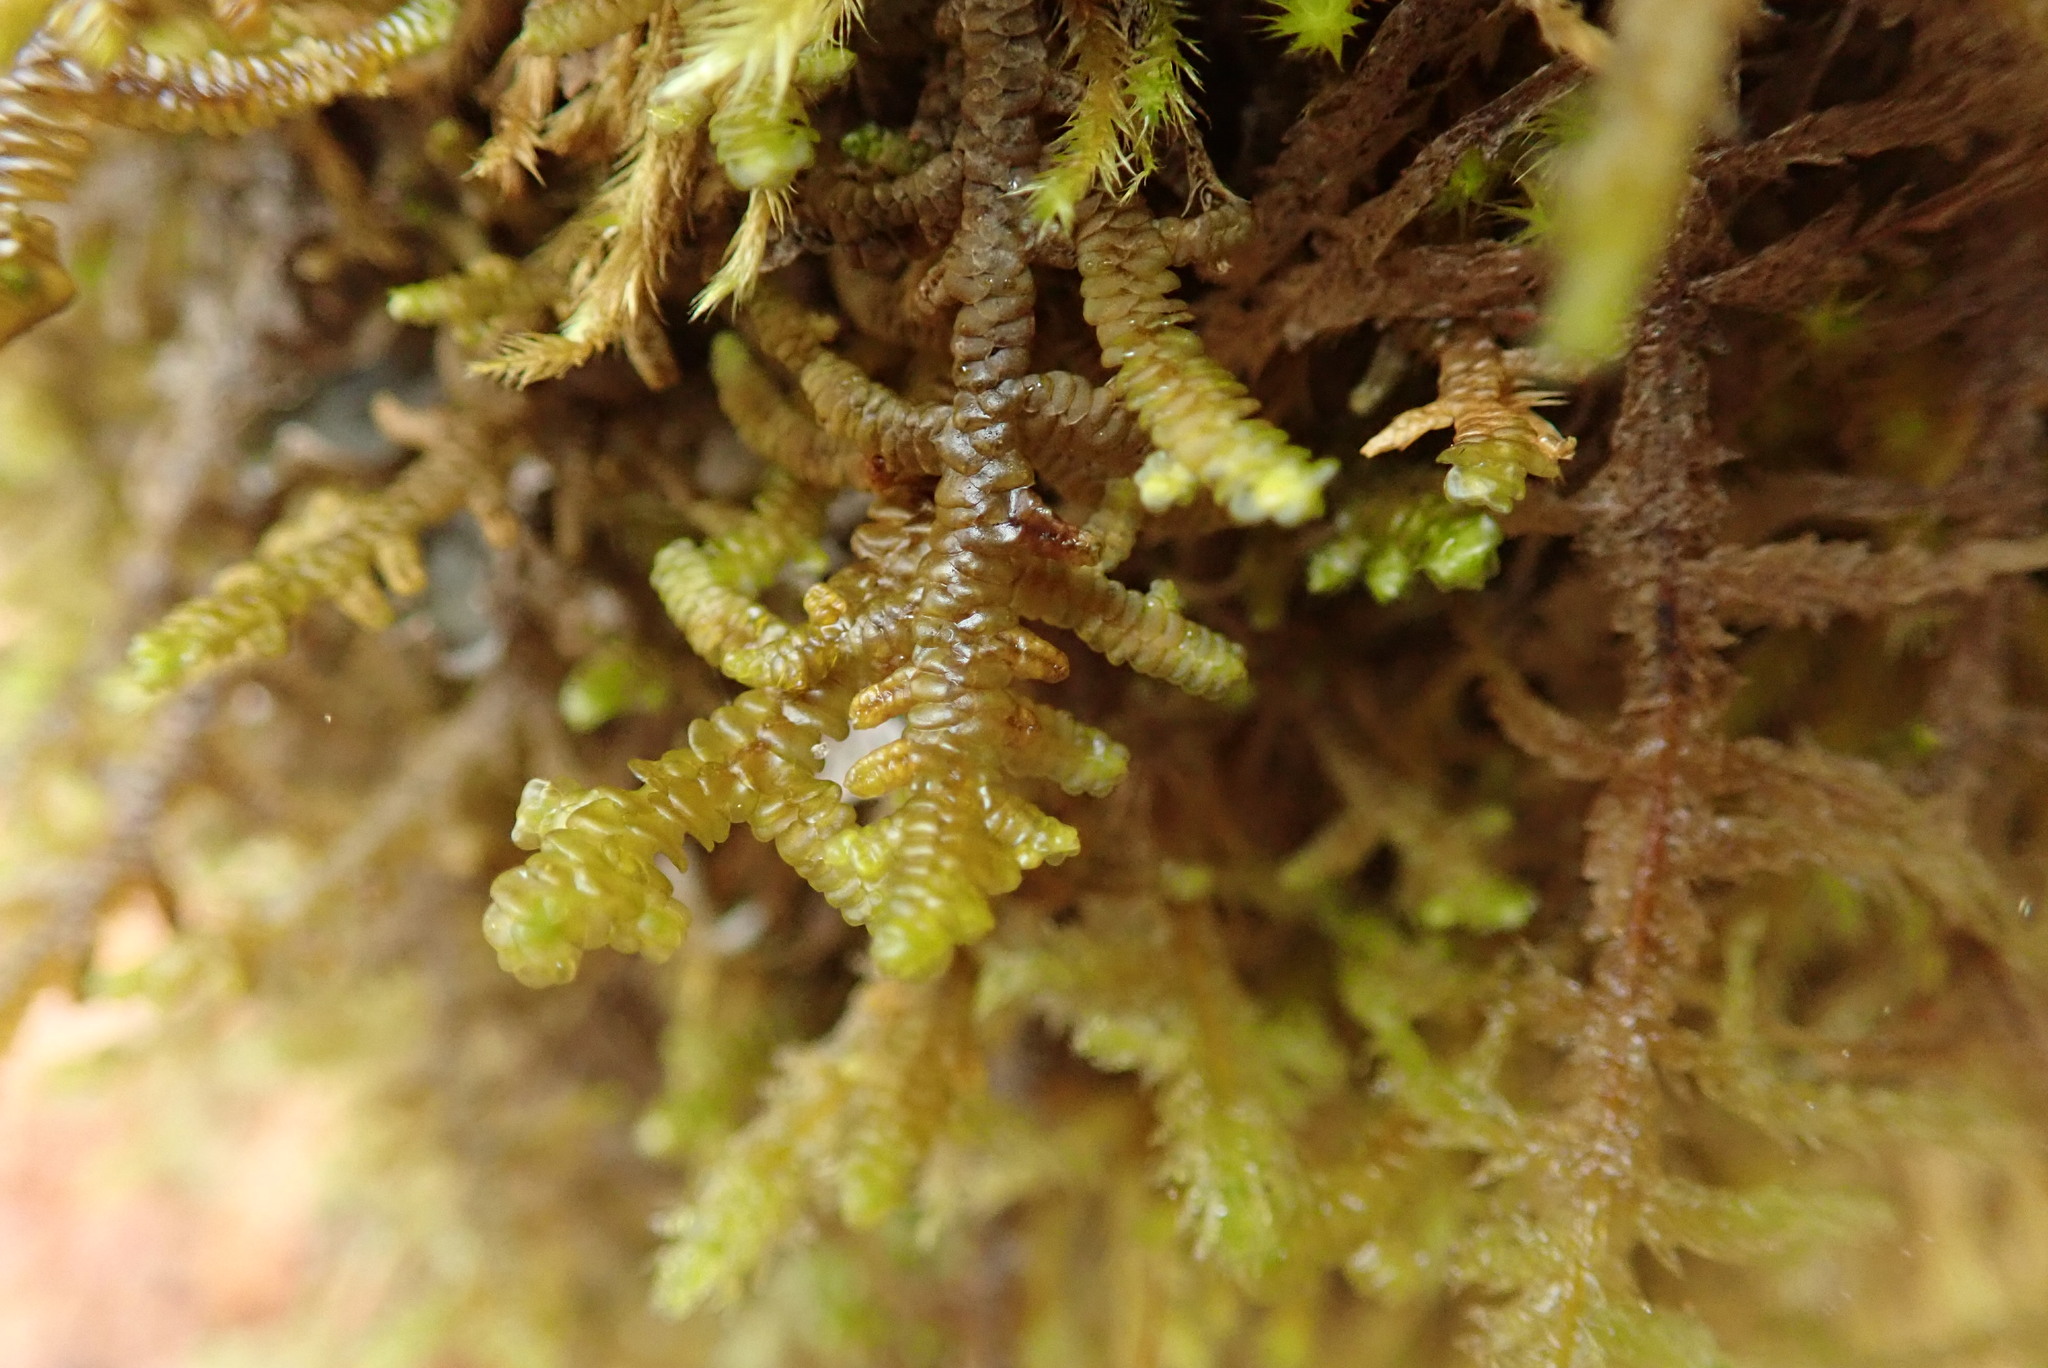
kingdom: Plantae
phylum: Marchantiophyta
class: Jungermanniopsida
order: Porellales
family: Porellaceae
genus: Porella
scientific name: Porella navicularis
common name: Tree ruffle liverwort
